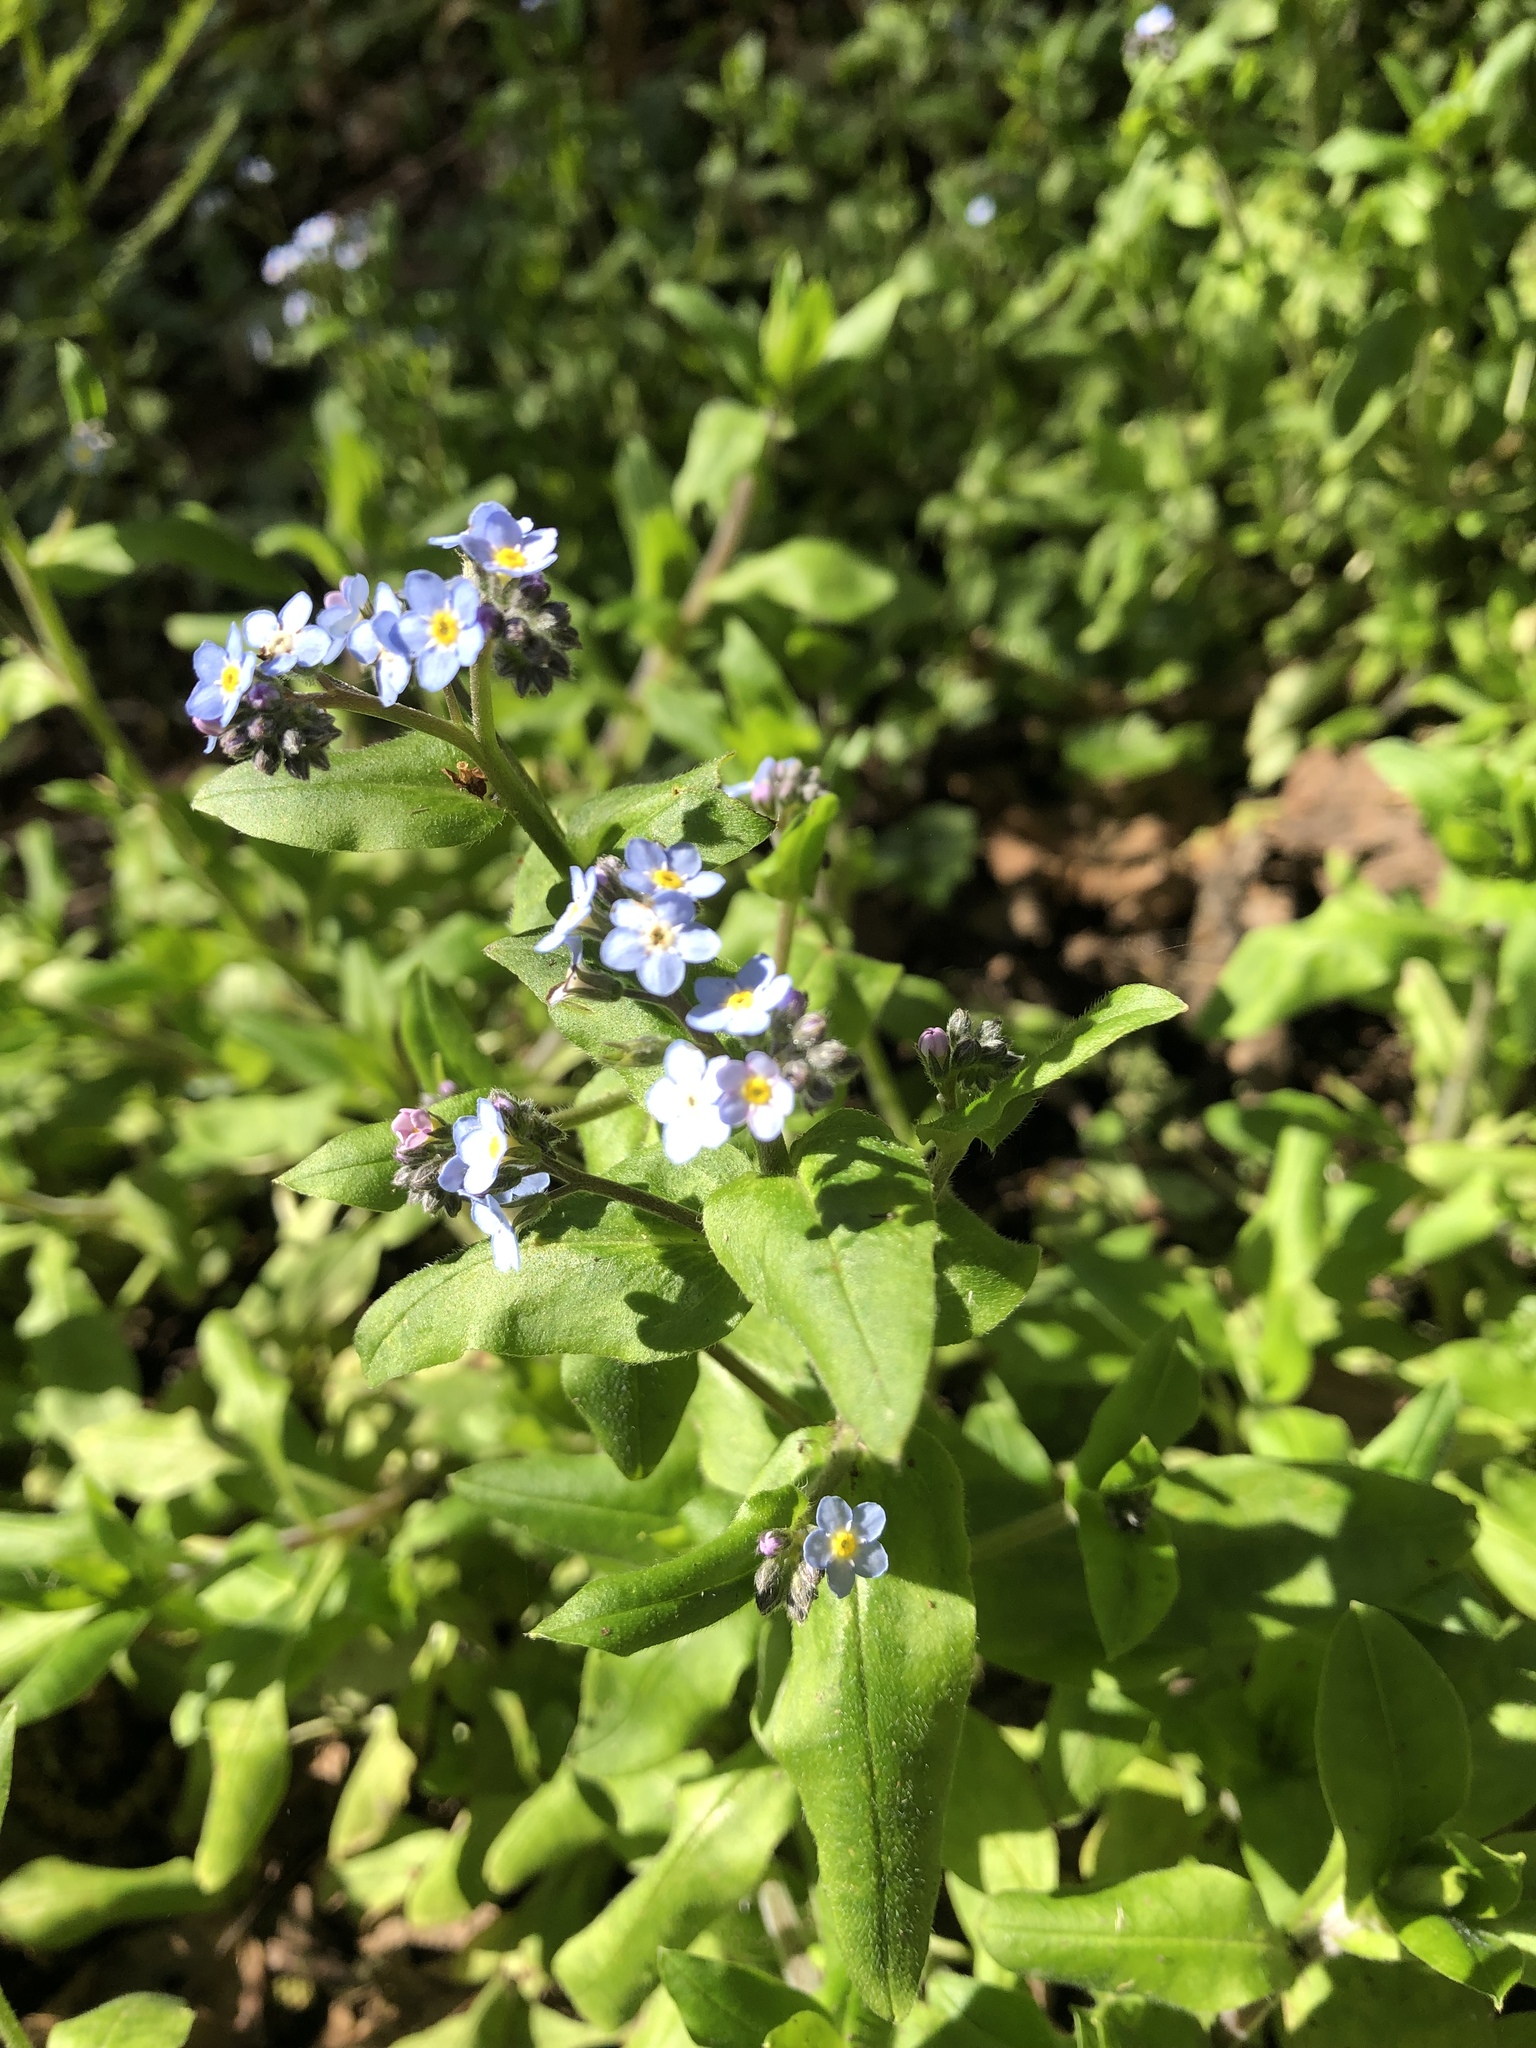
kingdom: Plantae
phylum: Tracheophyta
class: Magnoliopsida
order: Boraginales
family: Boraginaceae
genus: Myosotis
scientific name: Myosotis latifolia
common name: Broadleaf forget-me-not
